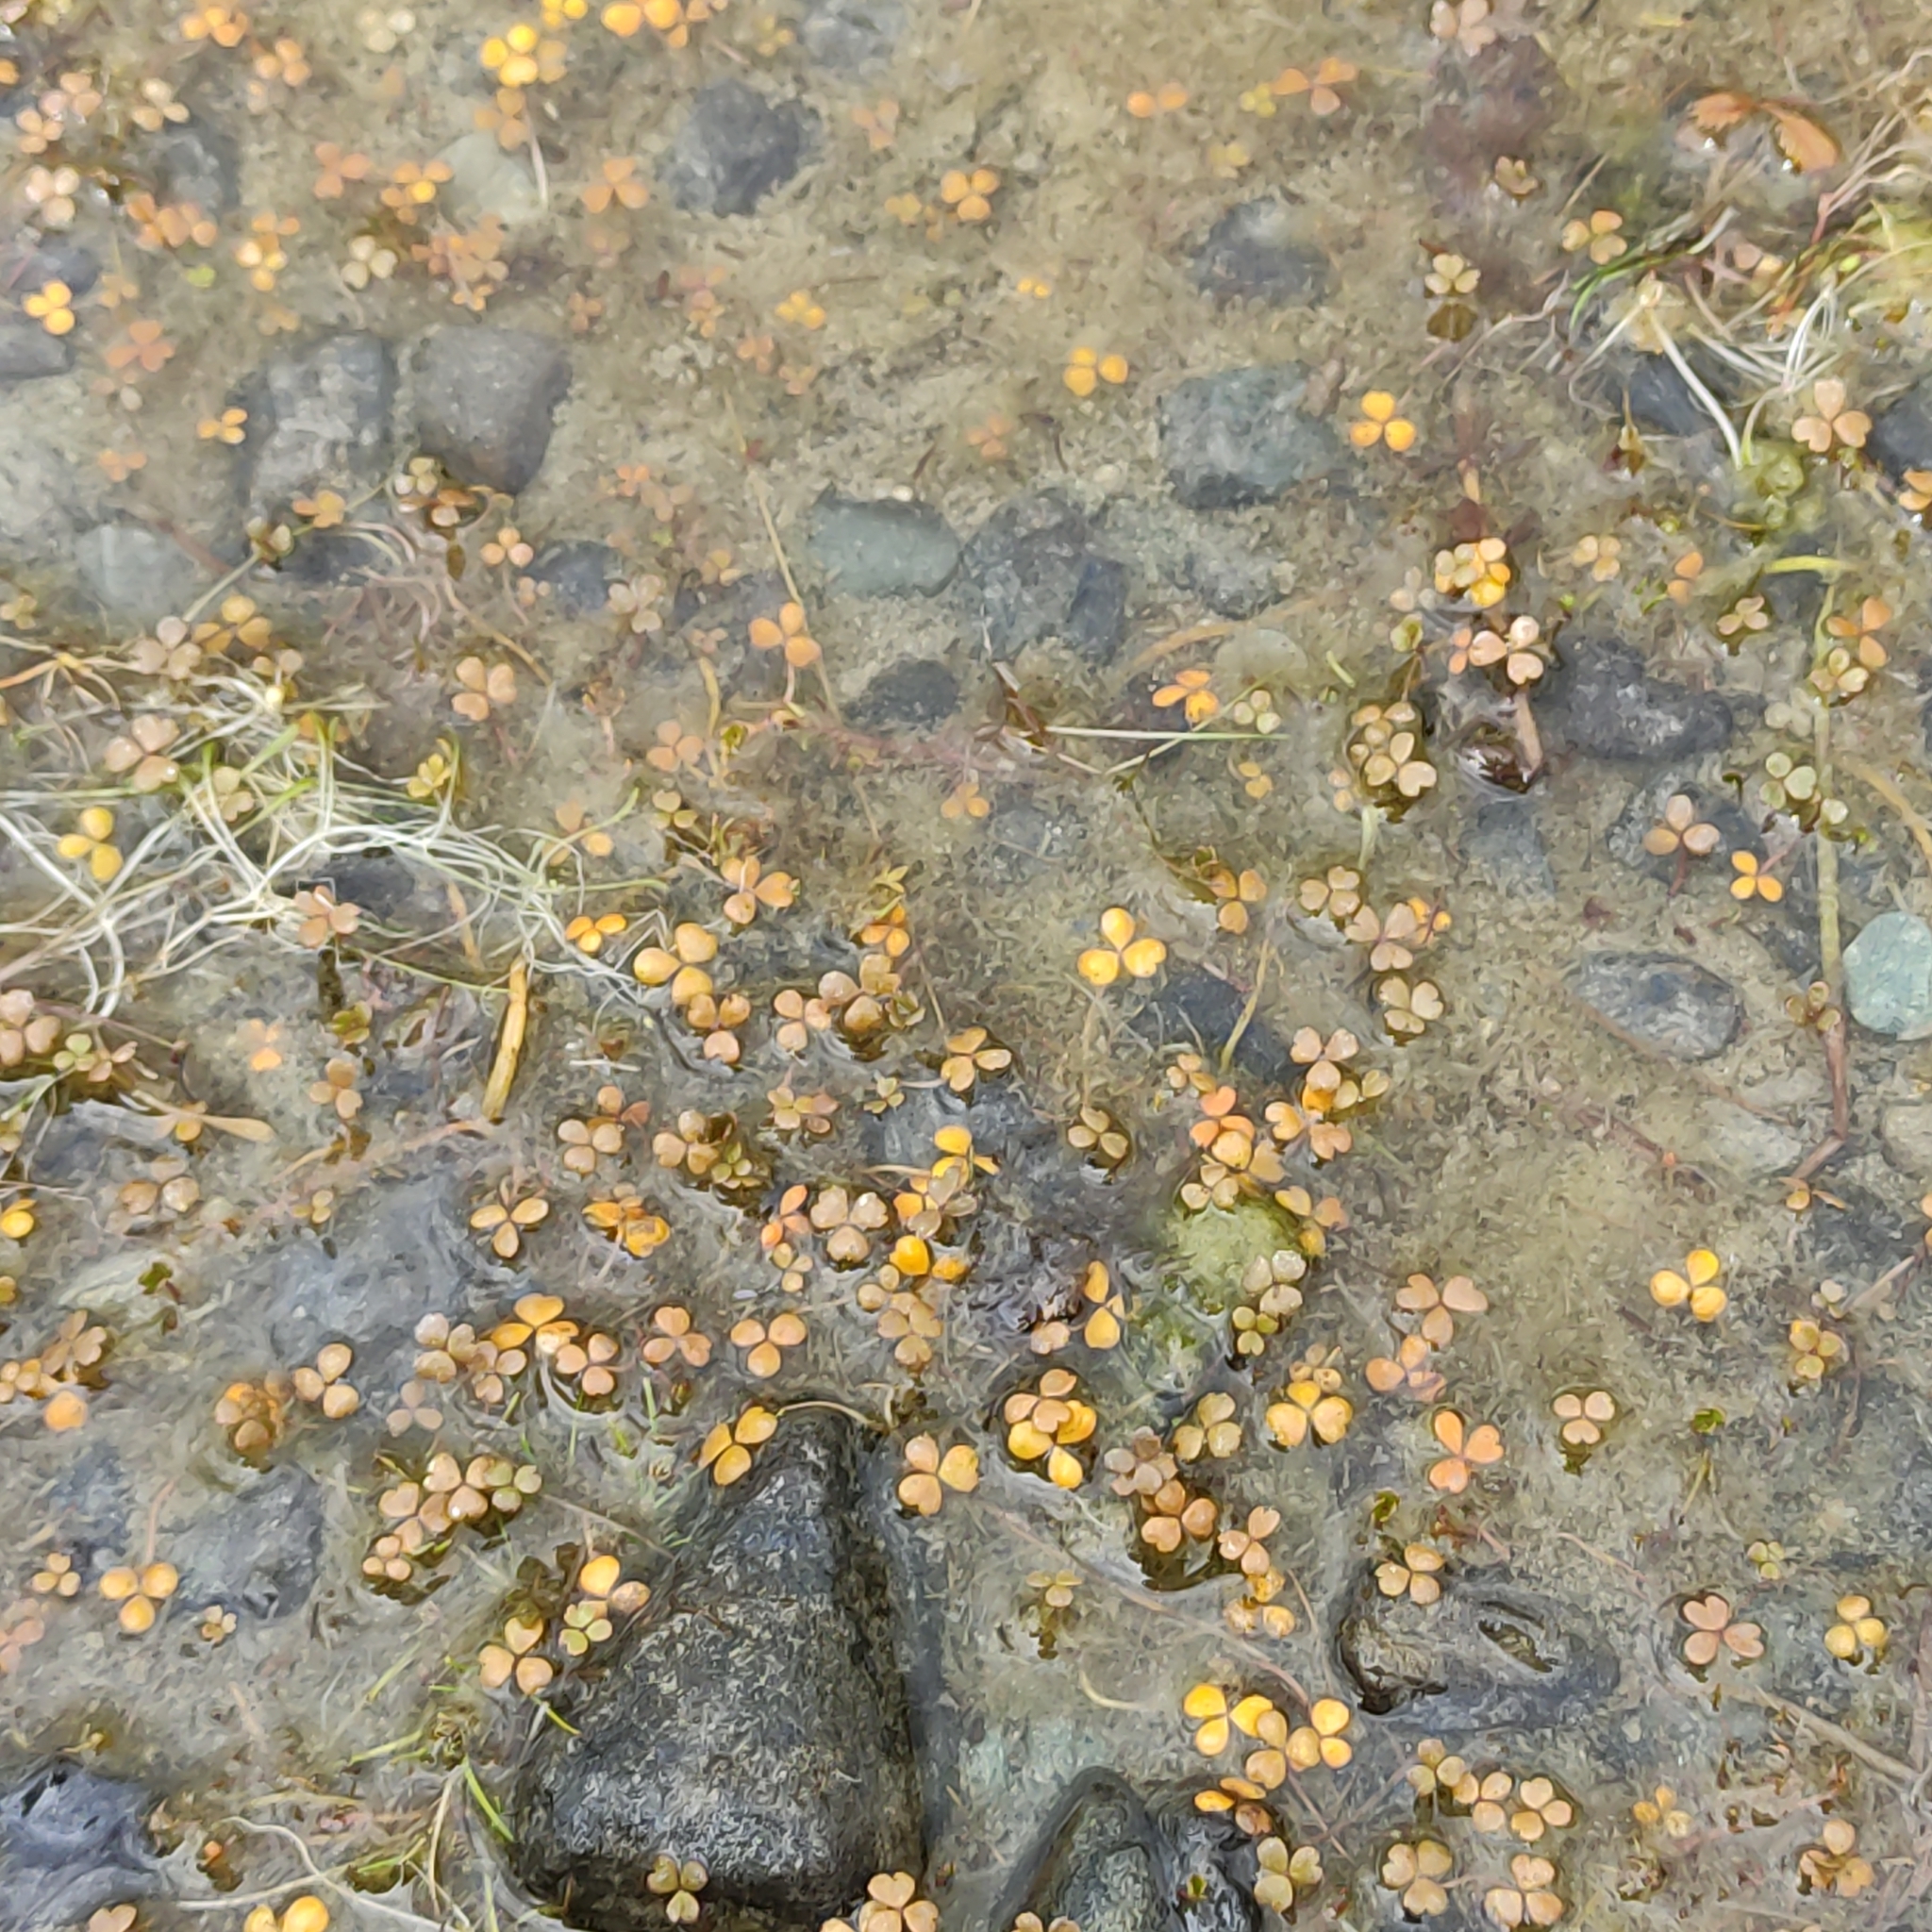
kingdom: Plantae
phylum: Tracheophyta
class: Magnoliopsida
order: Apiales
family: Araliaceae
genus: Hydrocotyle
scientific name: Hydrocotyle sulcata
